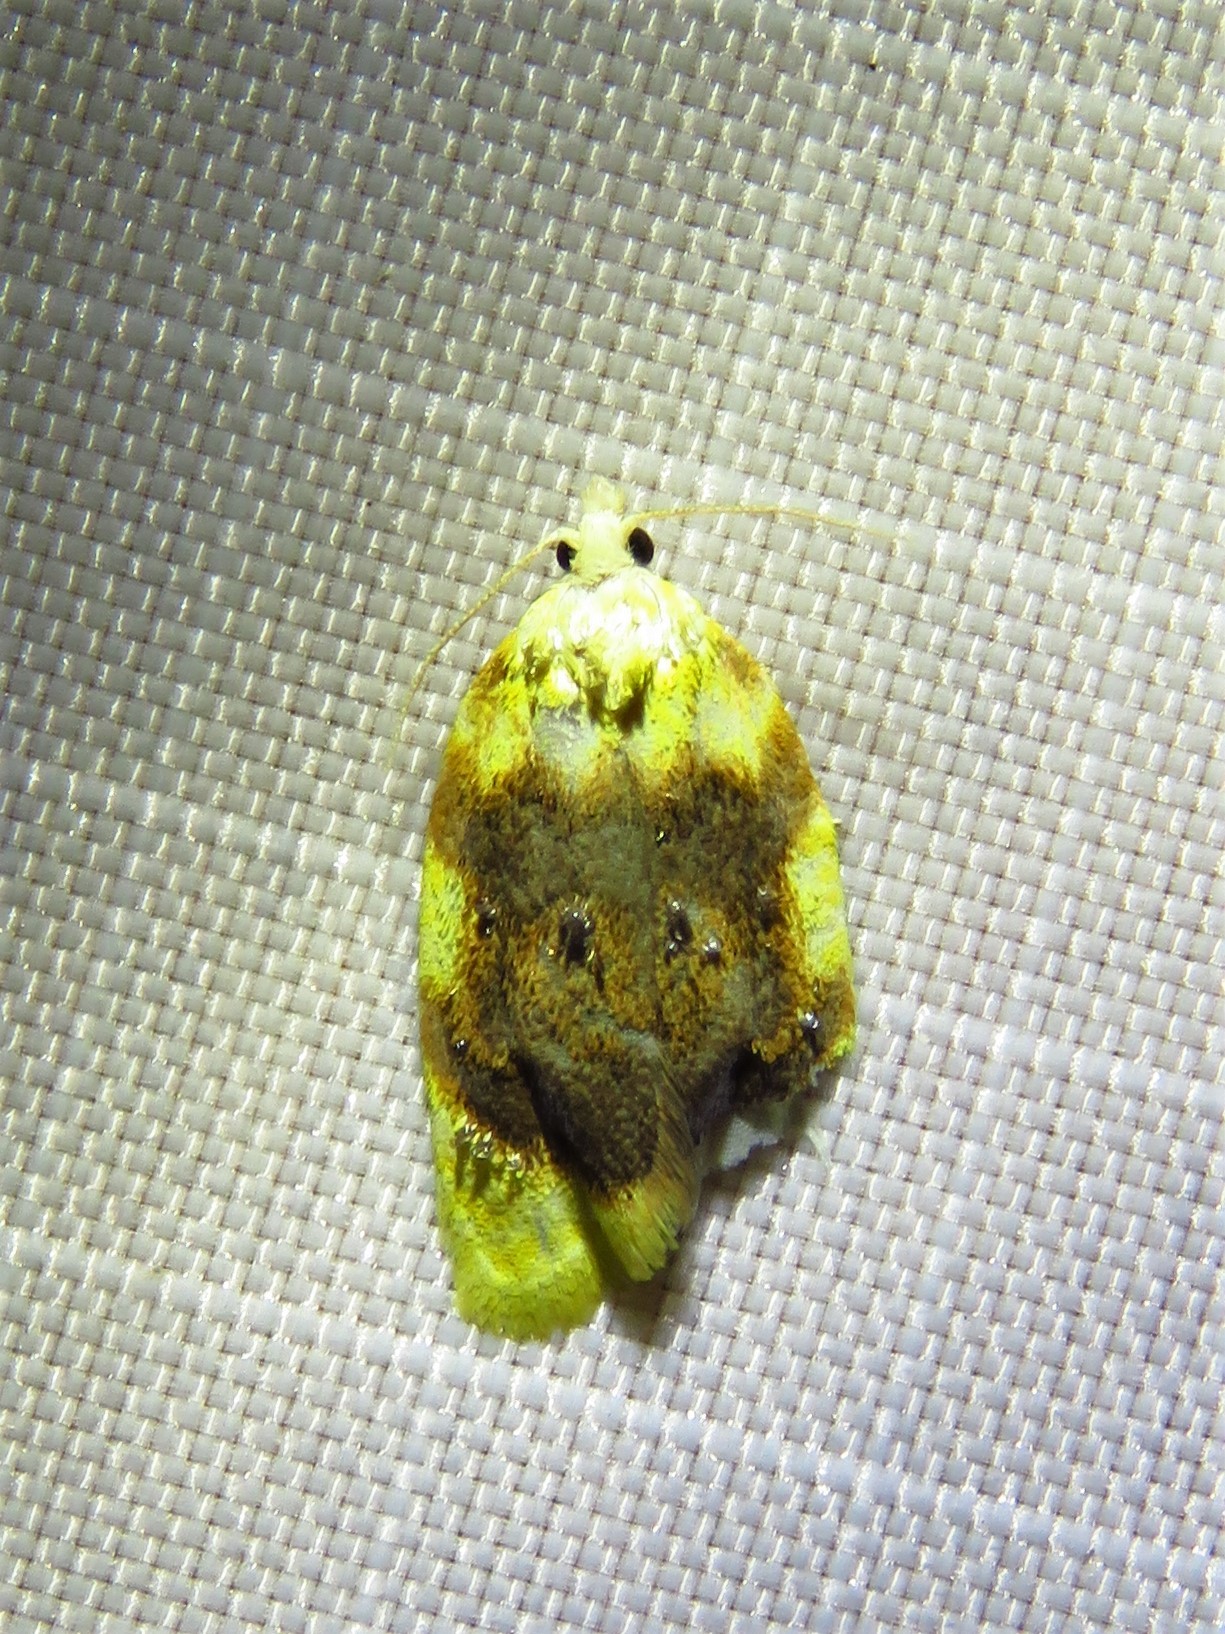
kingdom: Animalia
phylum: Arthropoda
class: Insecta
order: Lepidoptera
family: Tortricidae
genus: Acleris
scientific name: Acleris semipurpurana
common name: Oak leaftier moth
